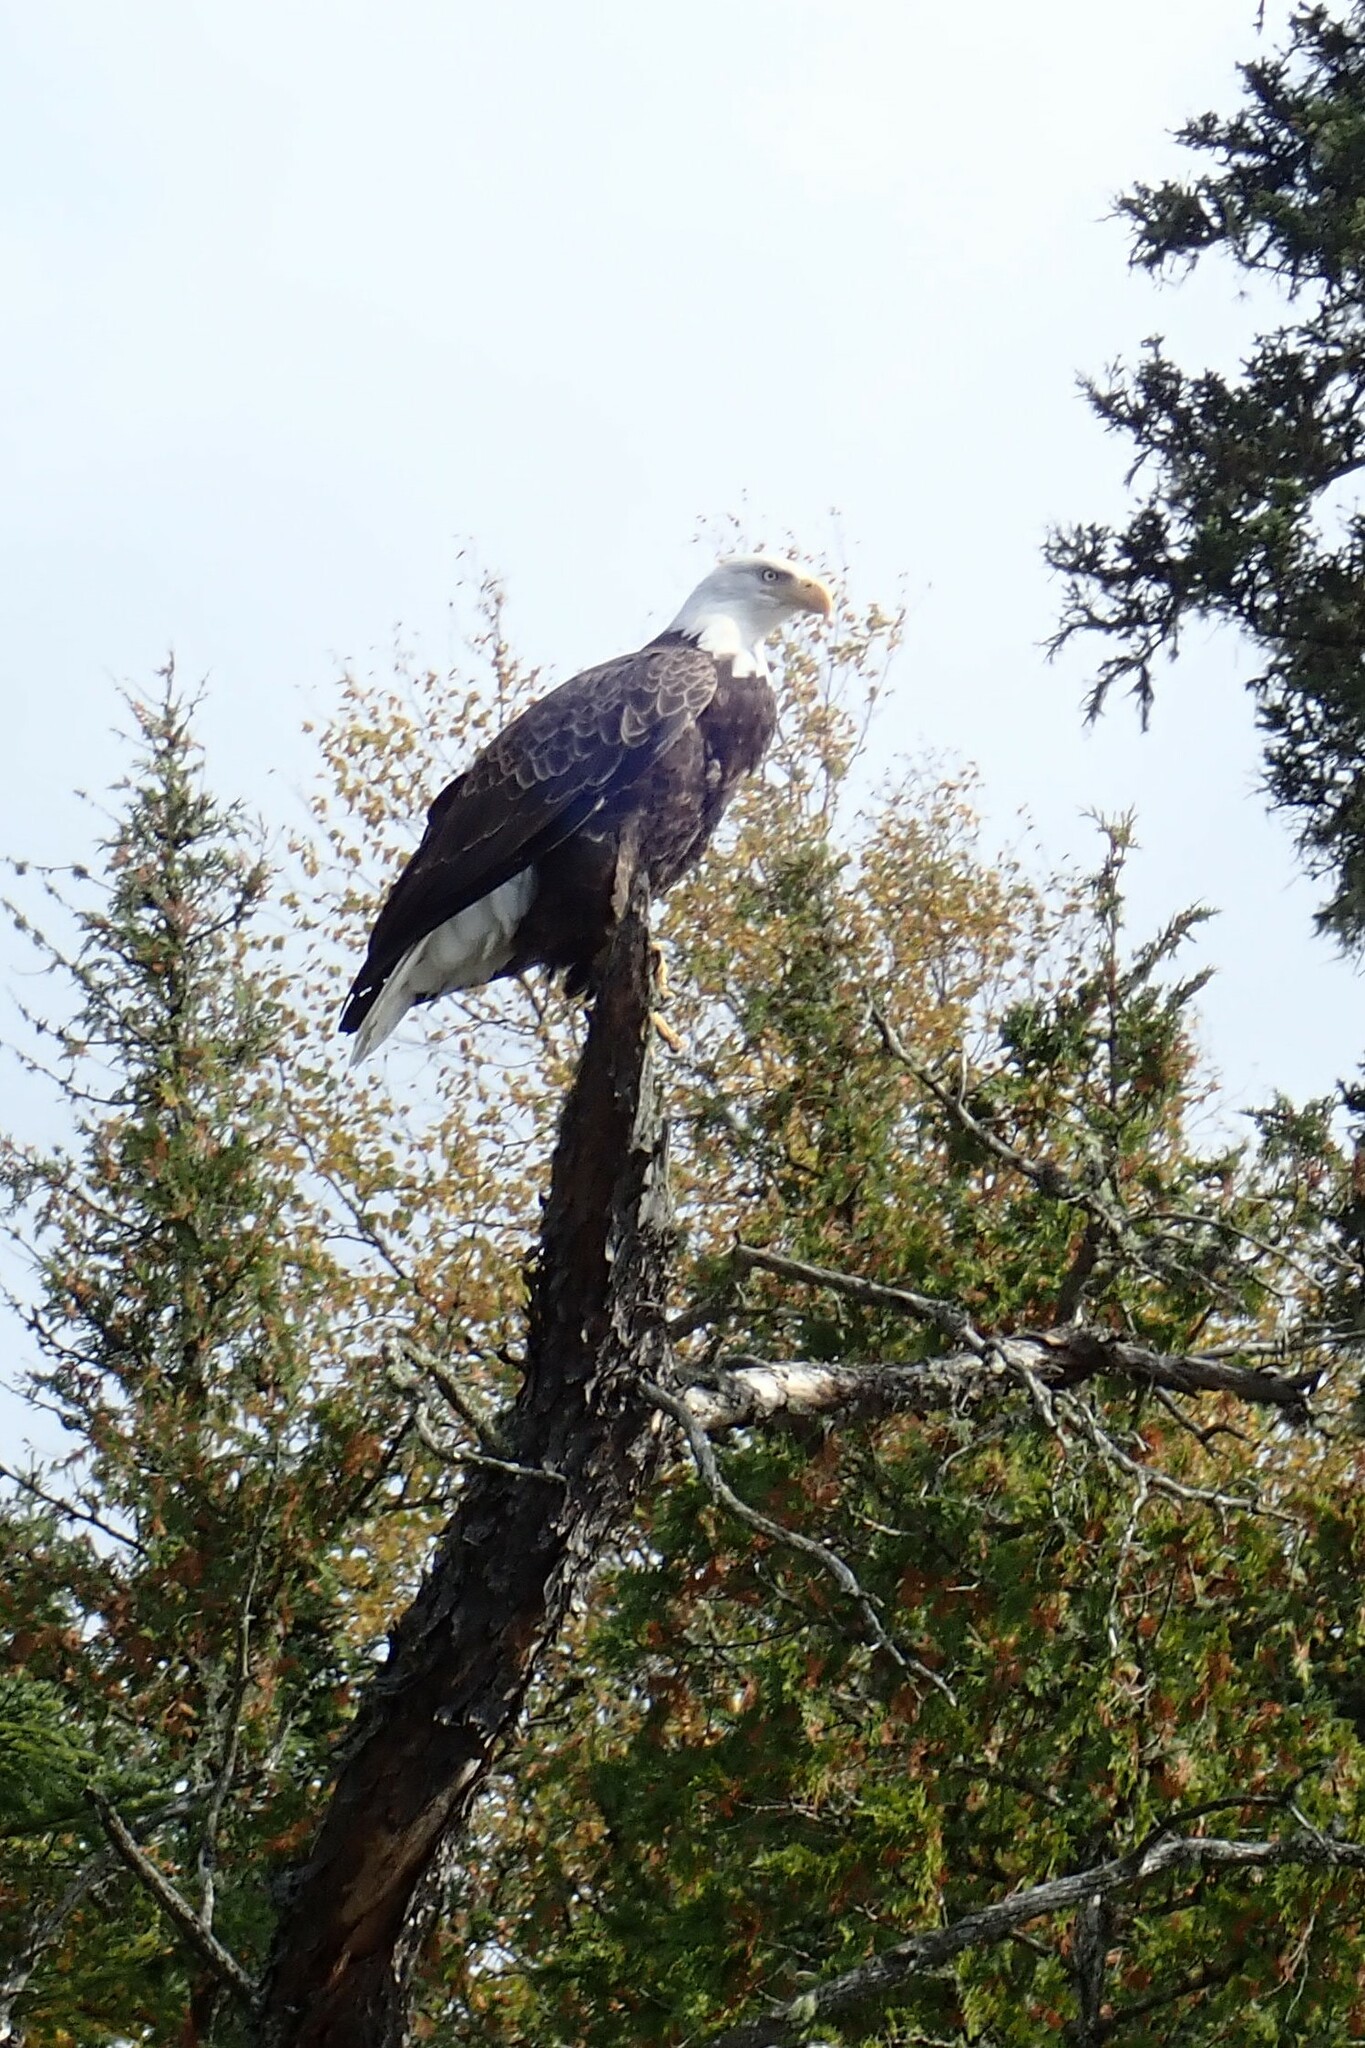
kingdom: Animalia
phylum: Chordata
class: Aves
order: Accipitriformes
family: Accipitridae
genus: Haliaeetus
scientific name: Haliaeetus leucocephalus
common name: Bald eagle
